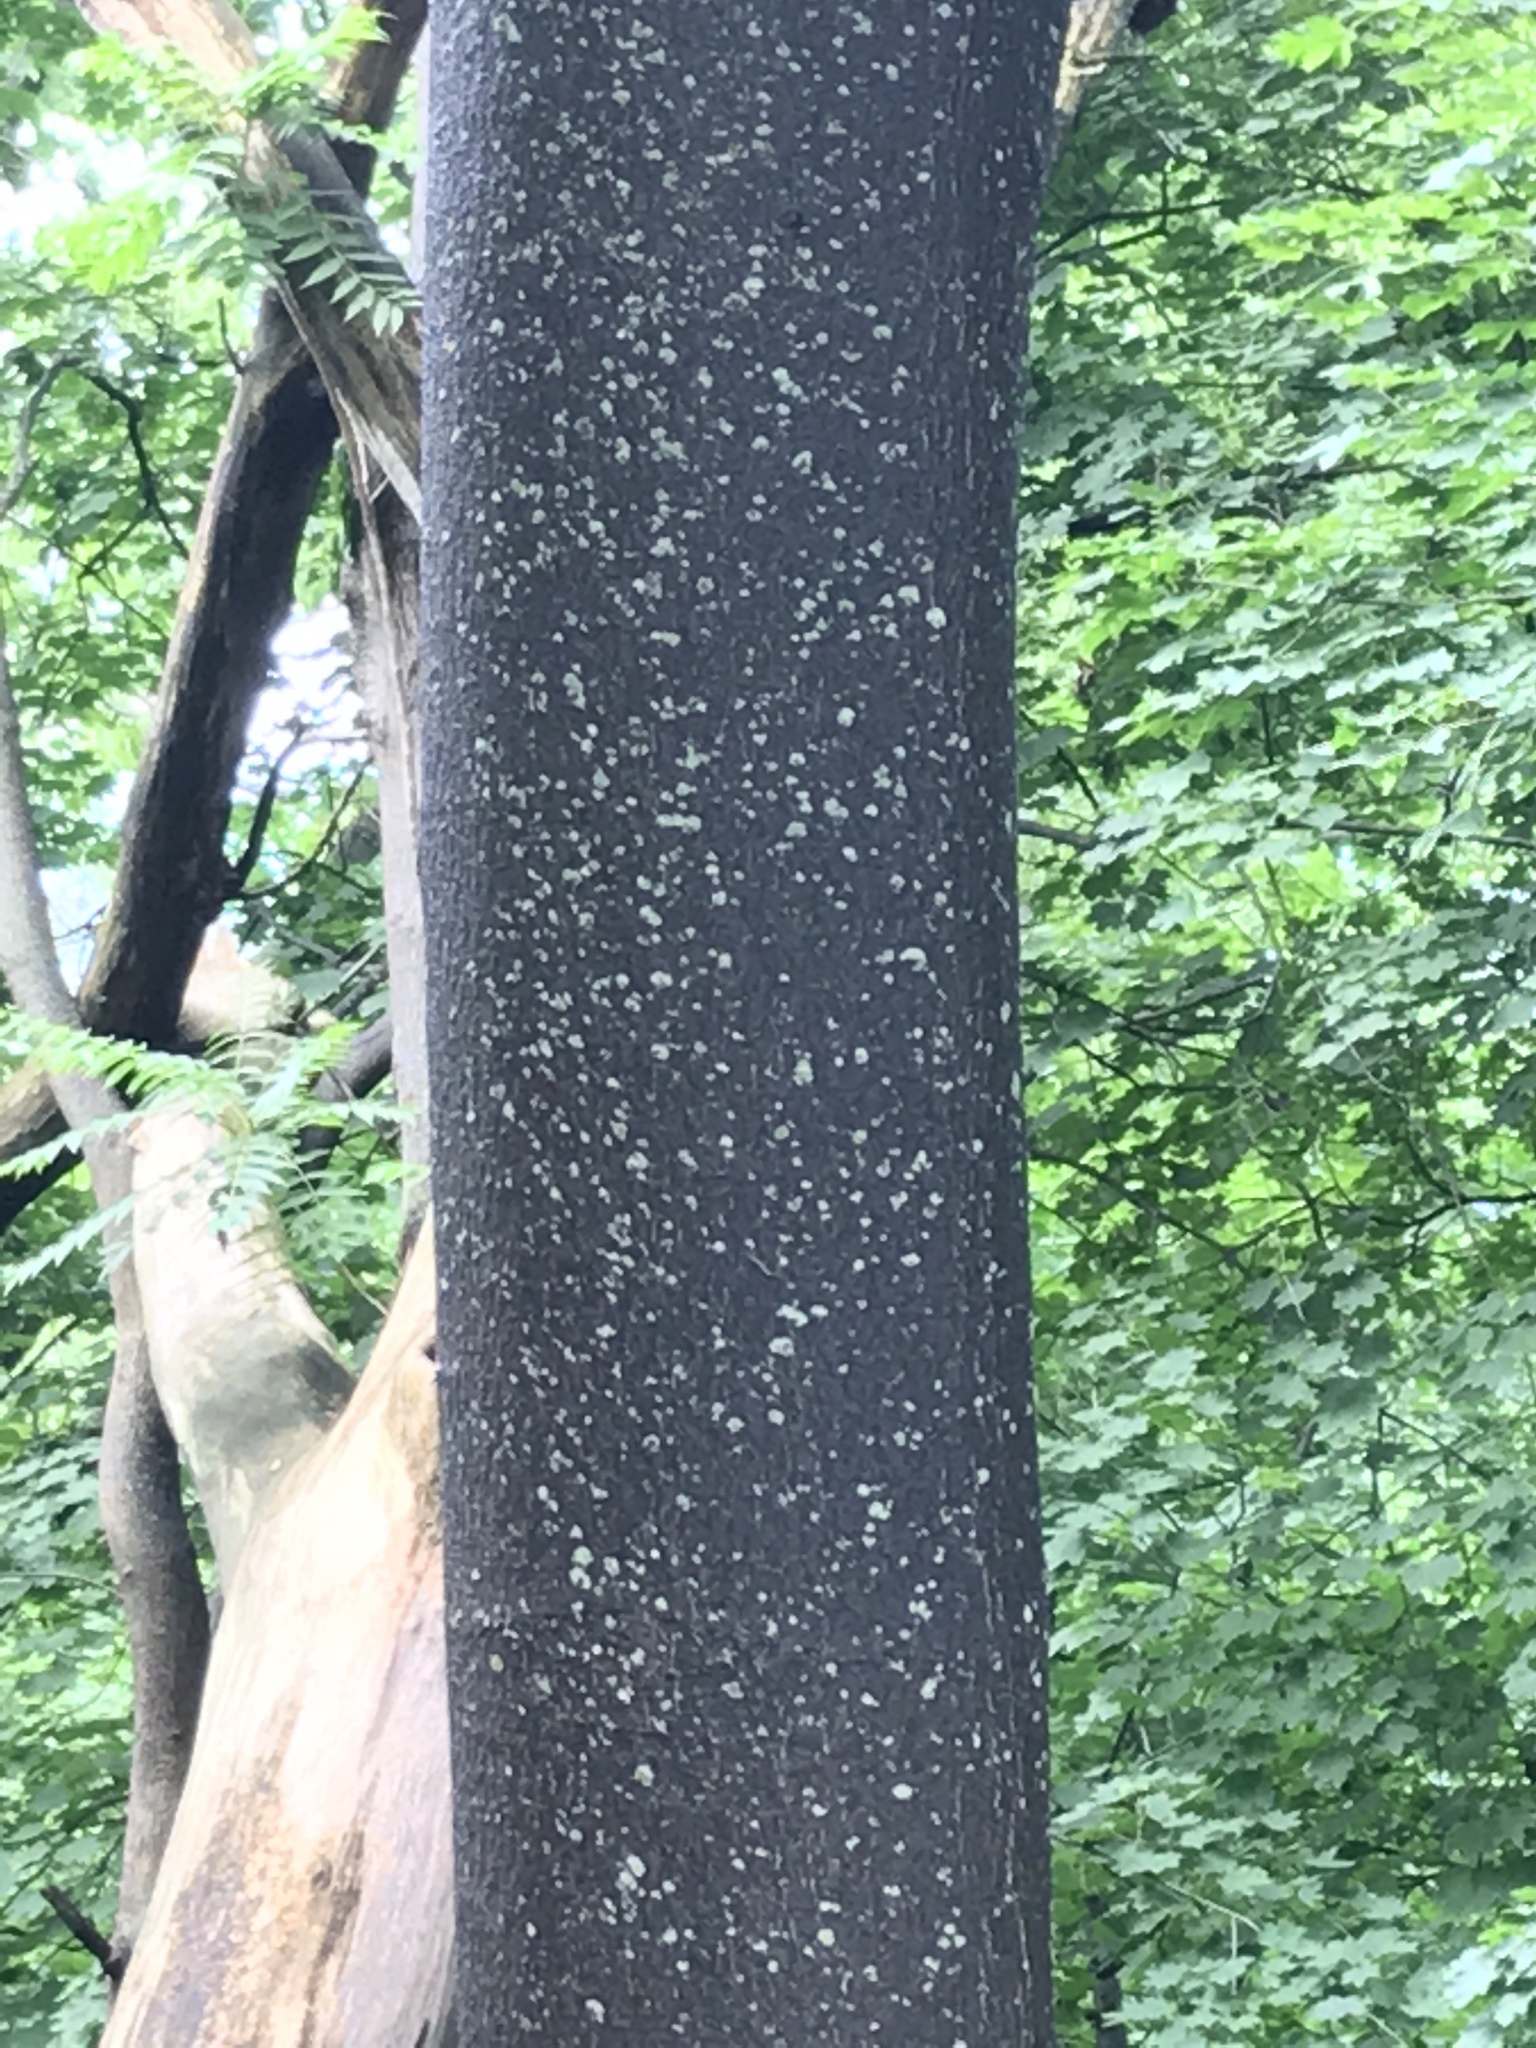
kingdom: Plantae
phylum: Tracheophyta
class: Magnoliopsida
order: Sapindales
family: Simaroubaceae
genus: Ailanthus
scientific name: Ailanthus altissima
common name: Tree-of-heaven
